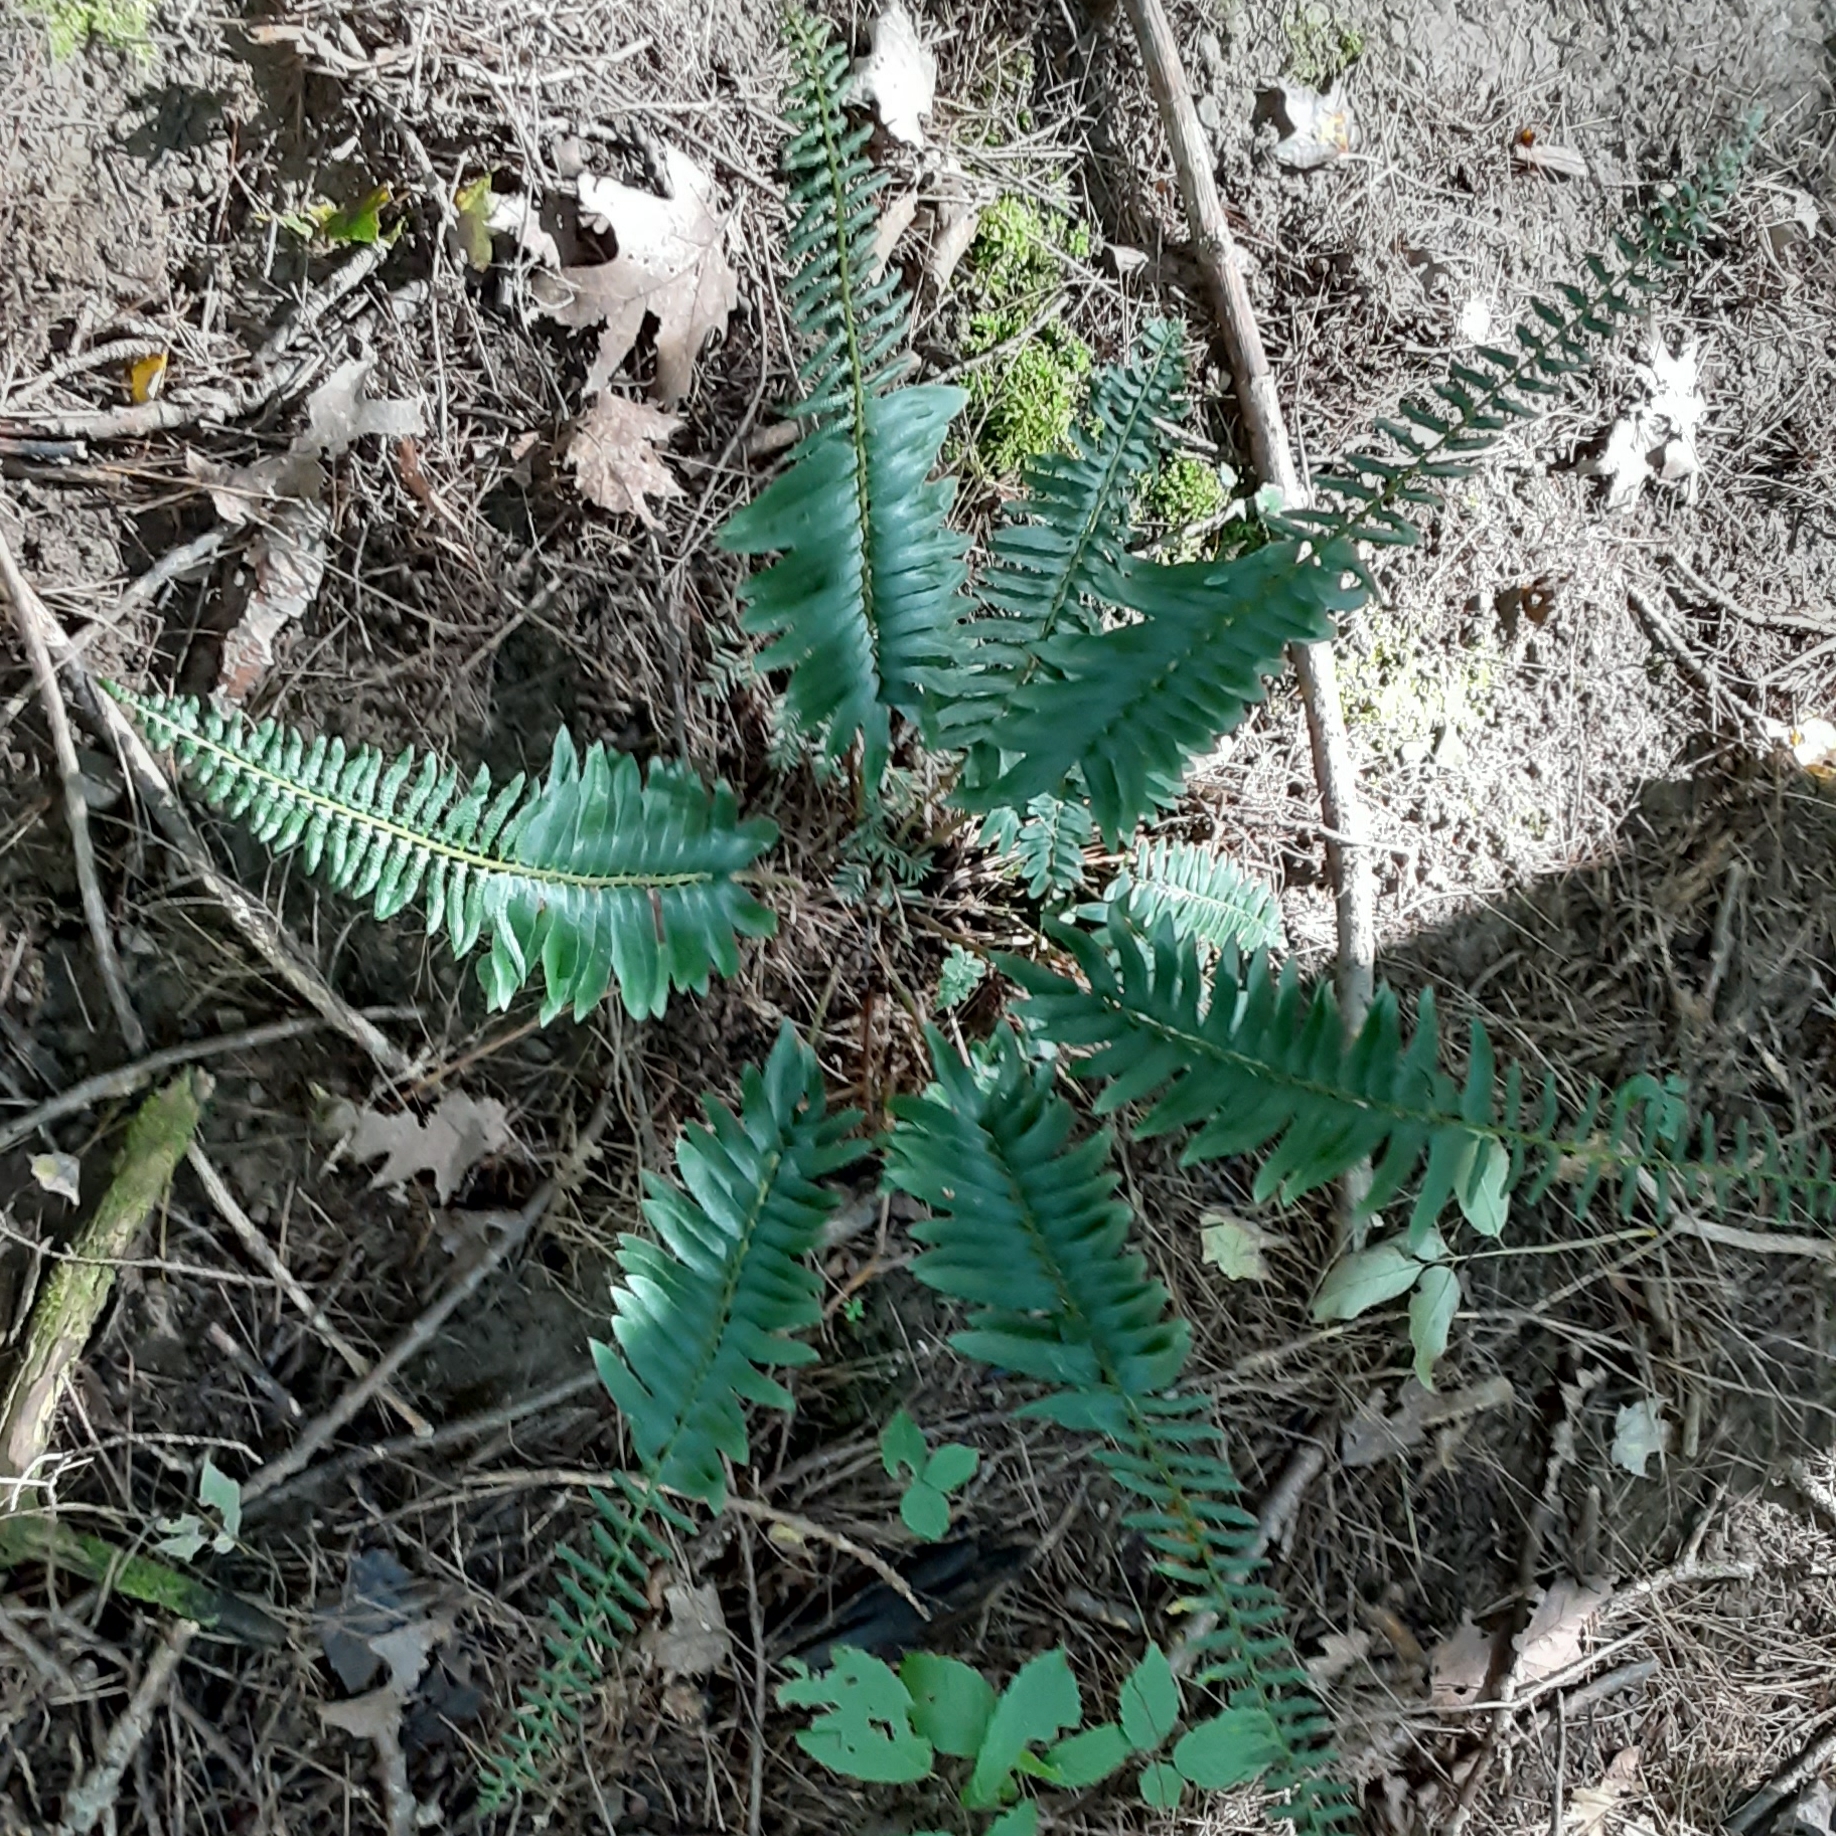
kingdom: Plantae
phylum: Tracheophyta
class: Polypodiopsida
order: Polypodiales
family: Dryopteridaceae
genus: Polystichum
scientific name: Polystichum acrostichoides
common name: Christmas fern
